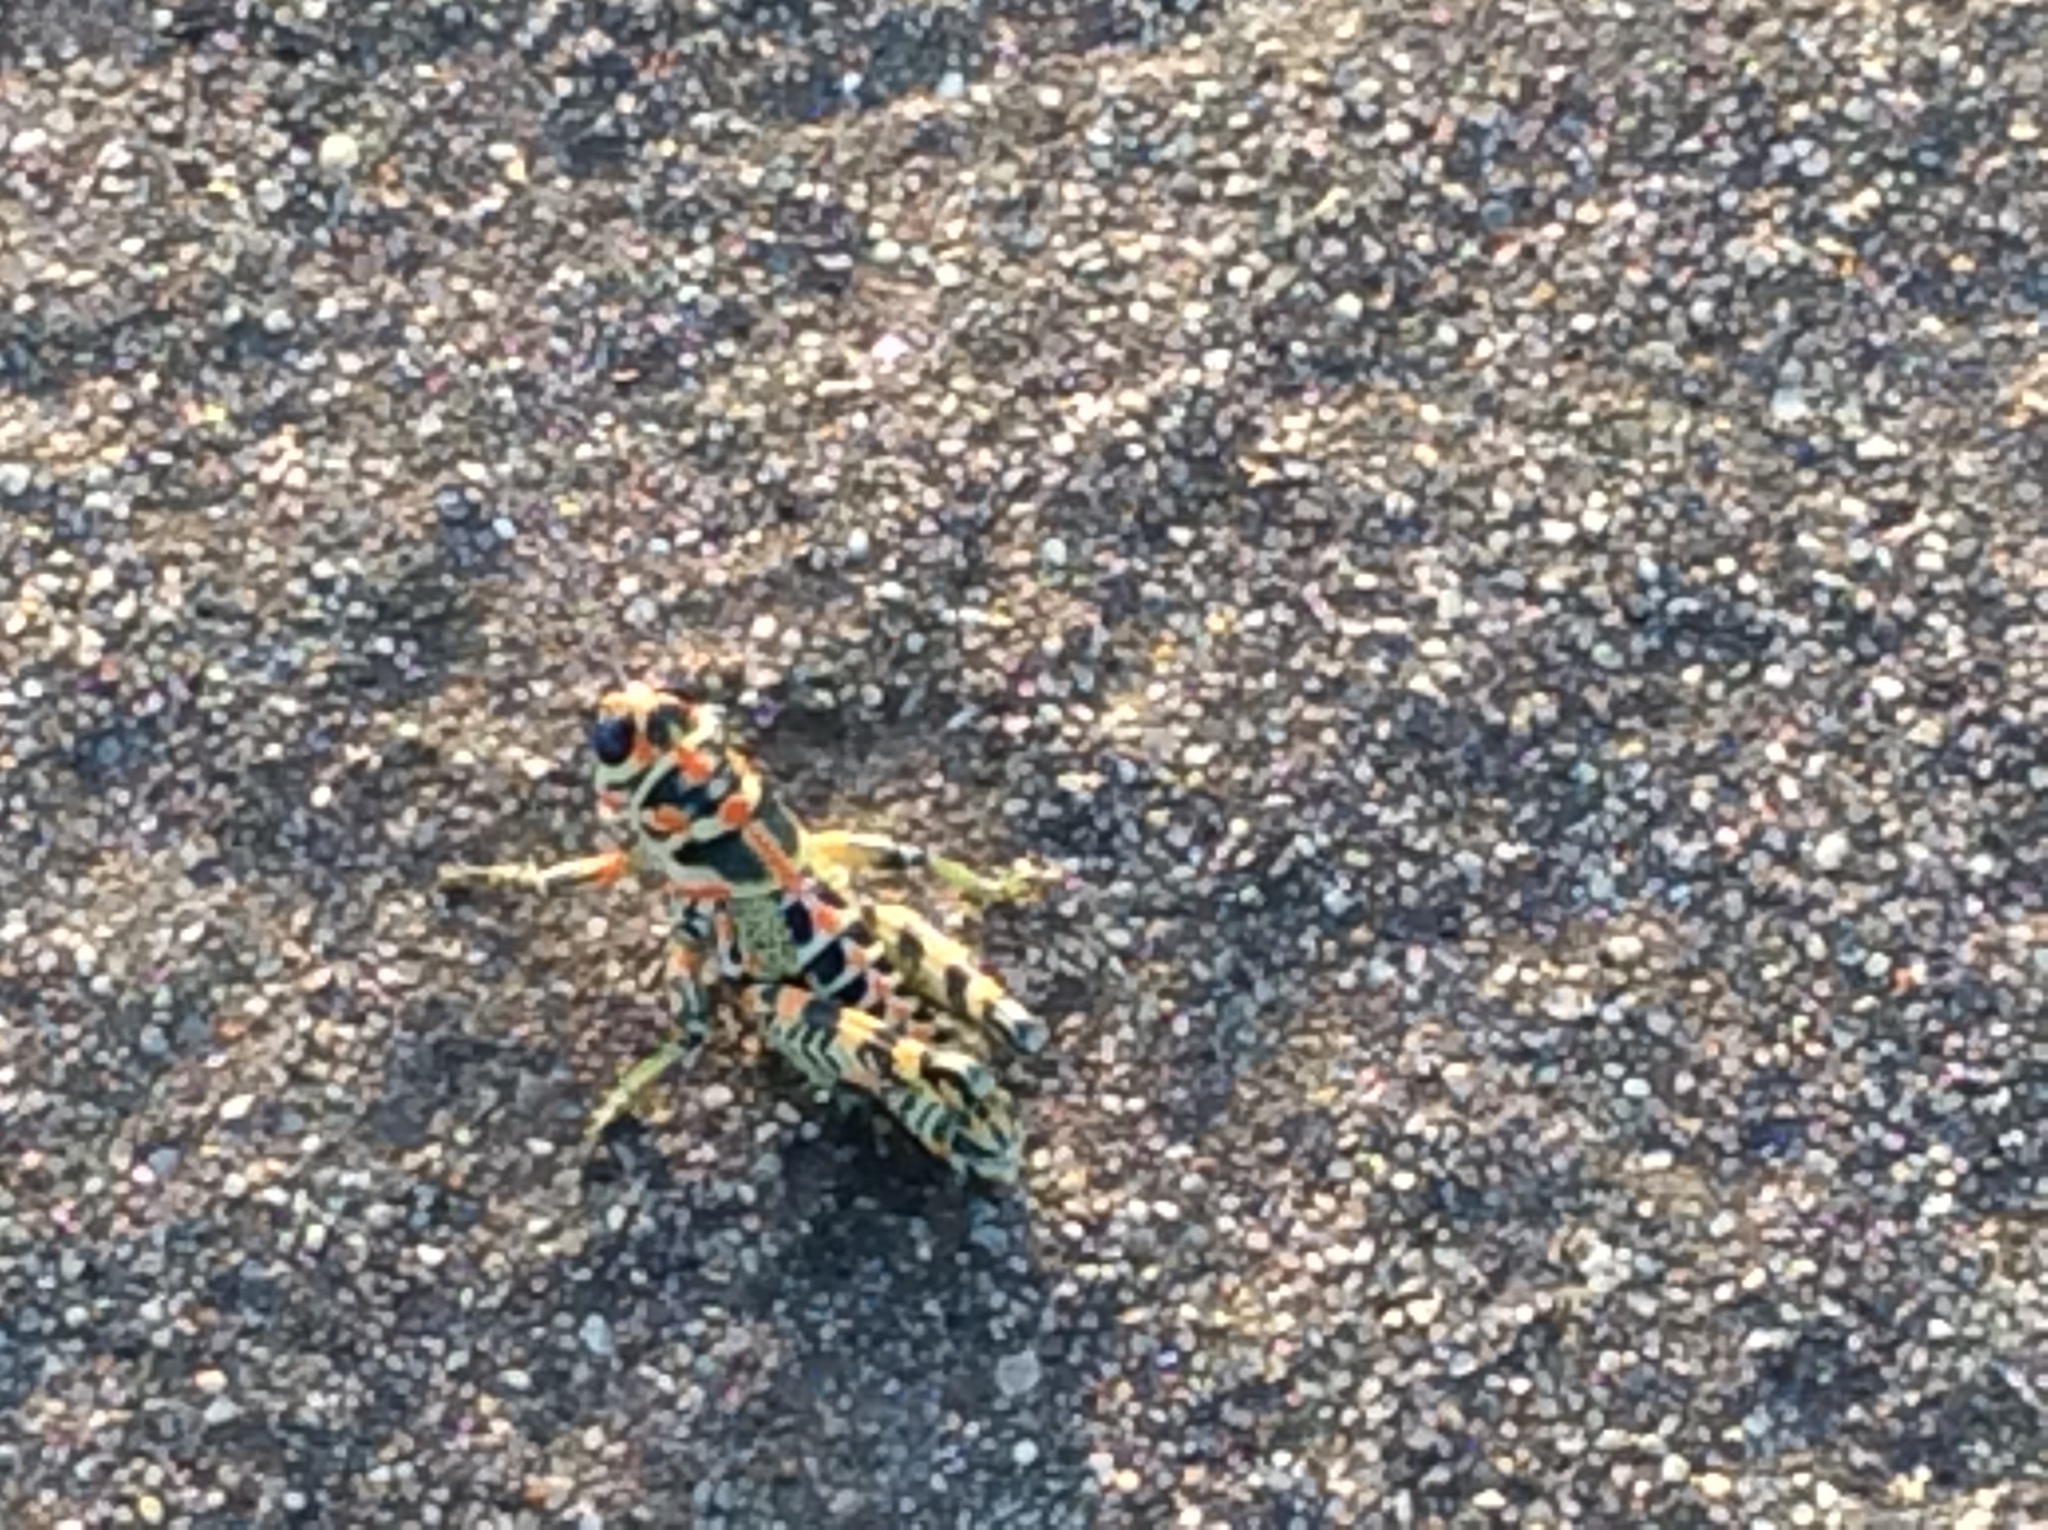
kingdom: Animalia
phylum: Arthropoda
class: Insecta
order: Orthoptera
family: Acrididae
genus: Dactylotum
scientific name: Dactylotum bicolor
